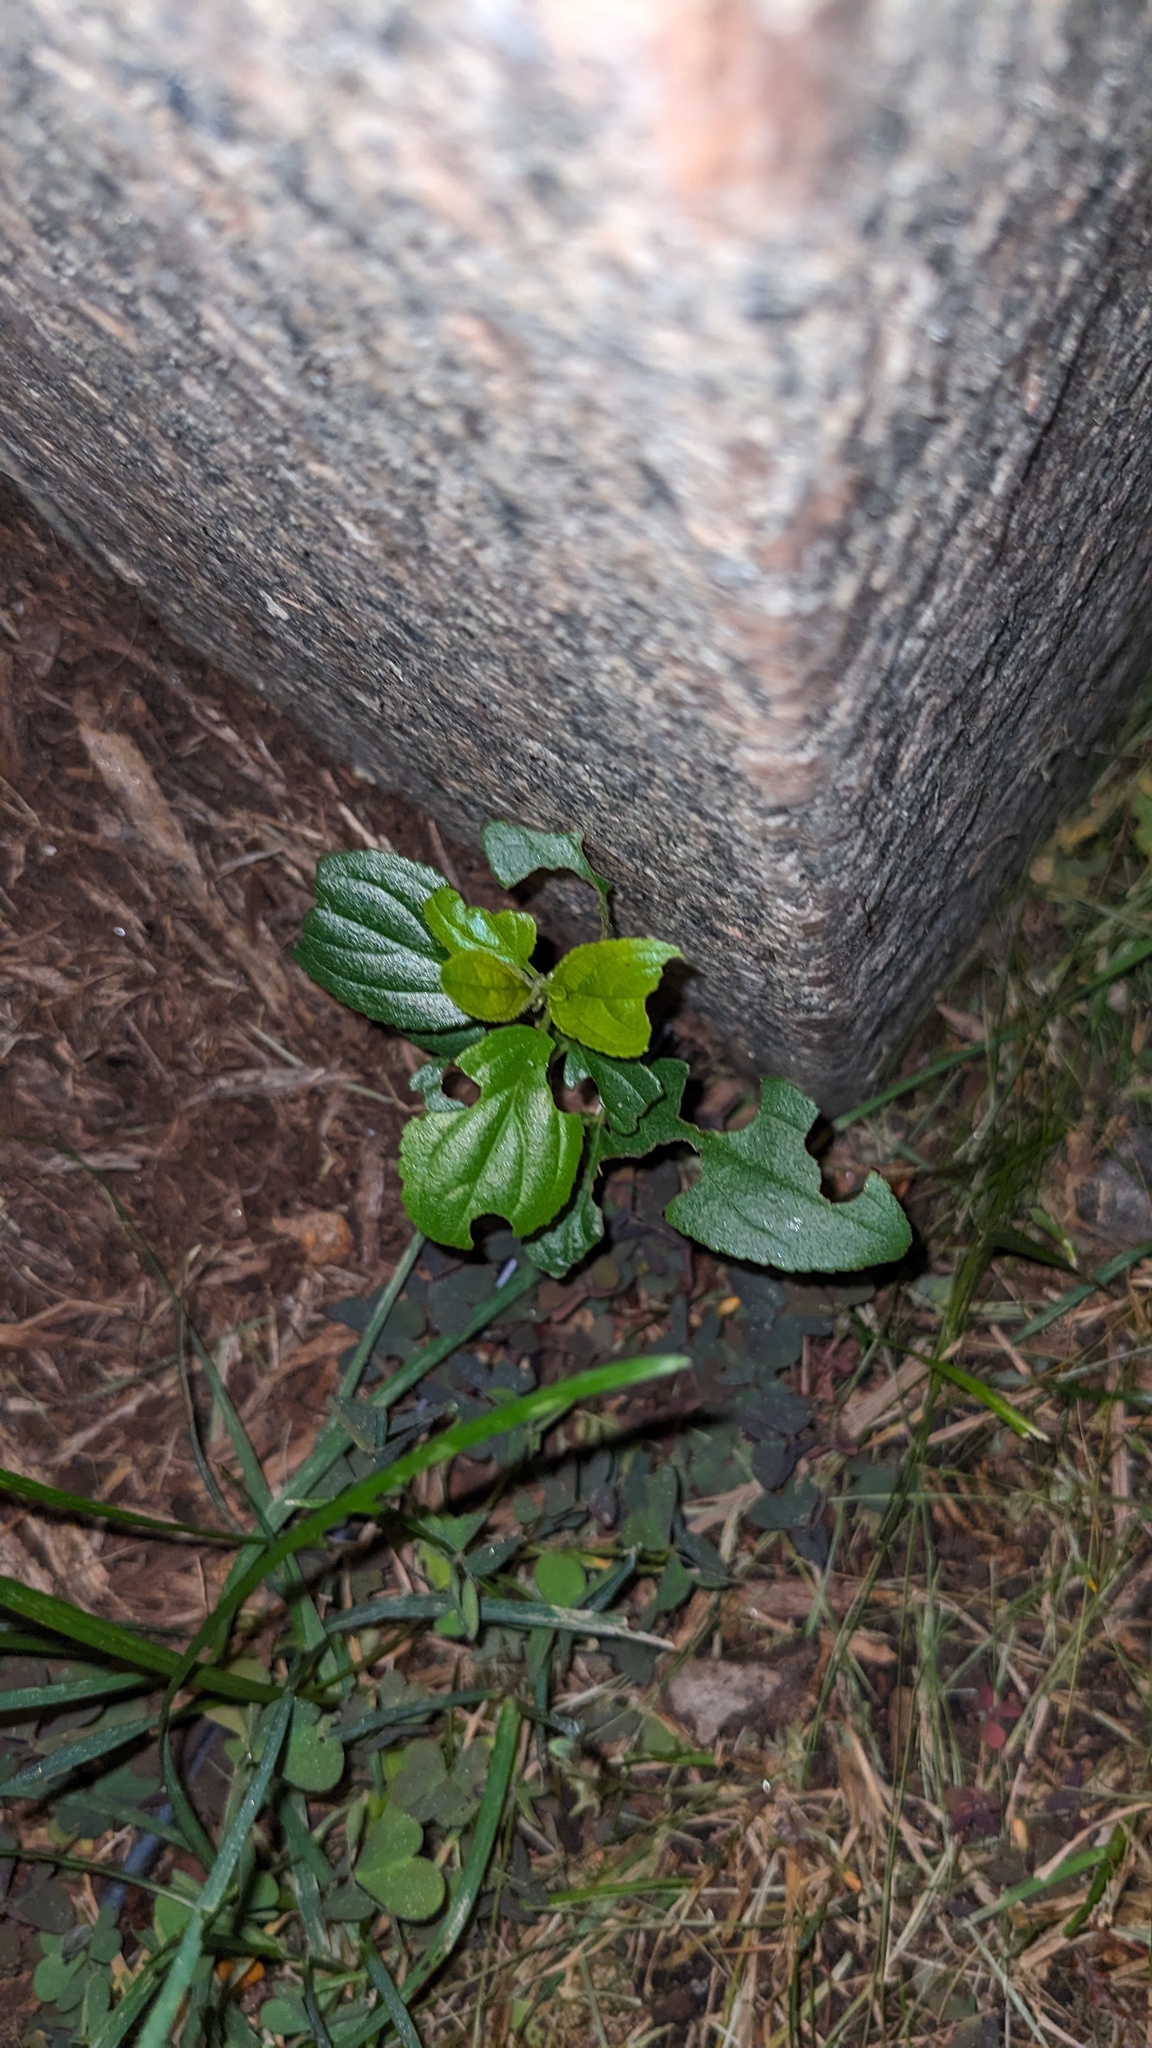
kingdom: Plantae
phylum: Tracheophyta
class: Magnoliopsida
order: Rosales
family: Rhamnaceae
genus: Rhamnus
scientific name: Rhamnus cathartica
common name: Common buckthorn
